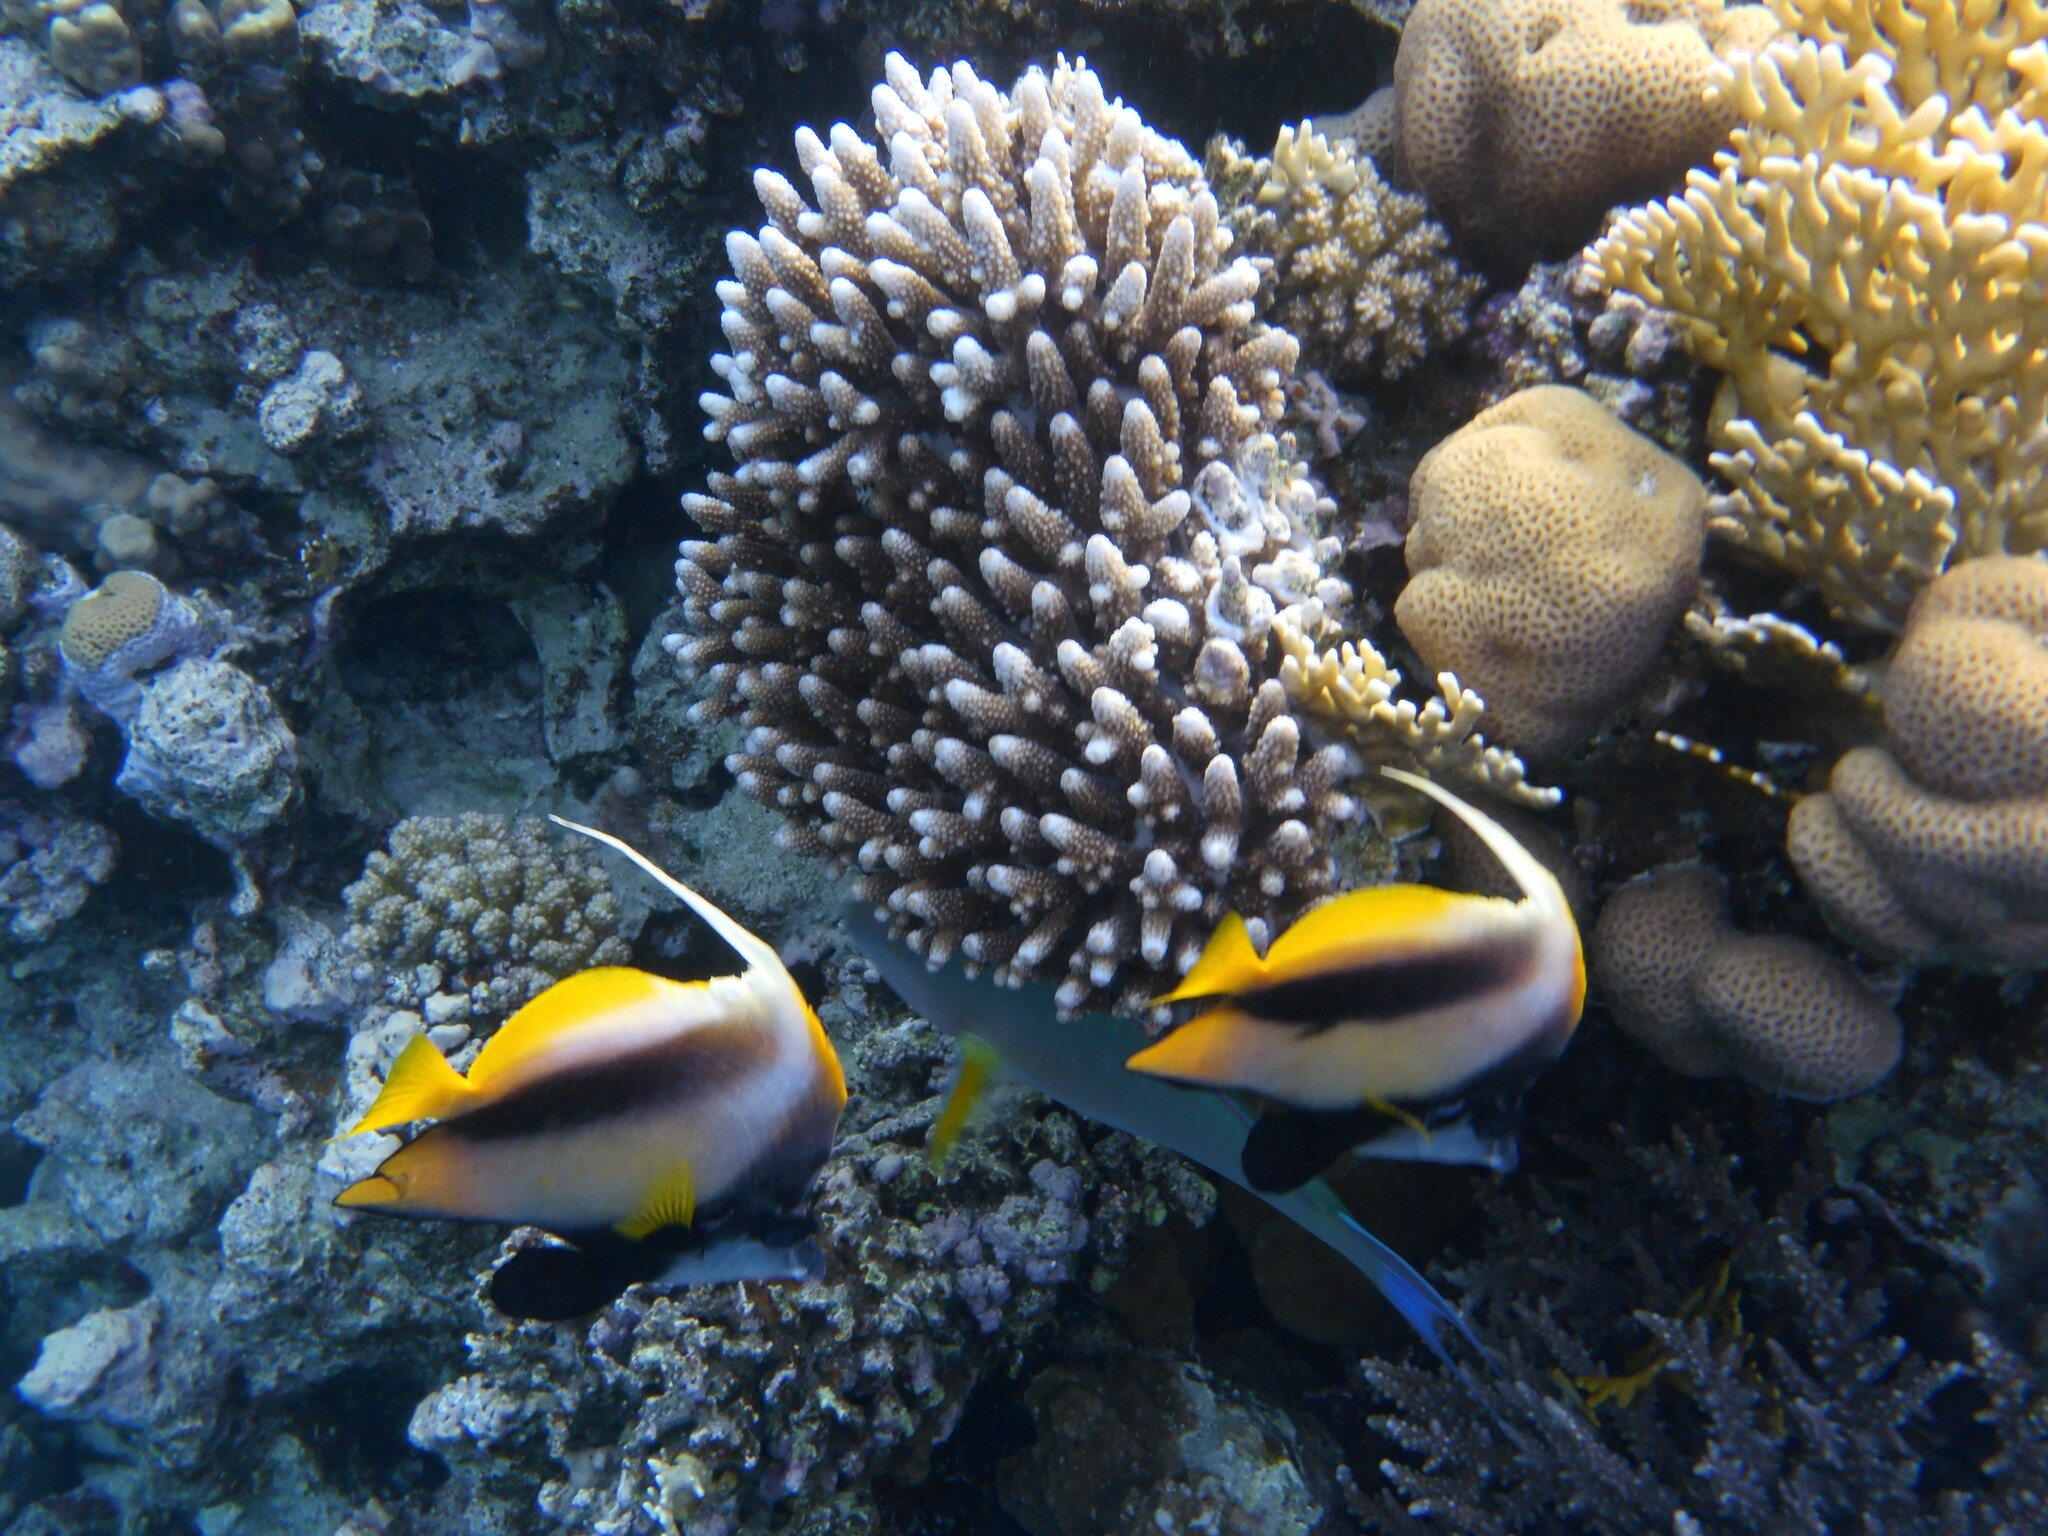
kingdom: Animalia
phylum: Chordata
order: Perciformes
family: Chaetodontidae
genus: Heniochus
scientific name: Heniochus intermedius
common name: Red sea bannerfish
